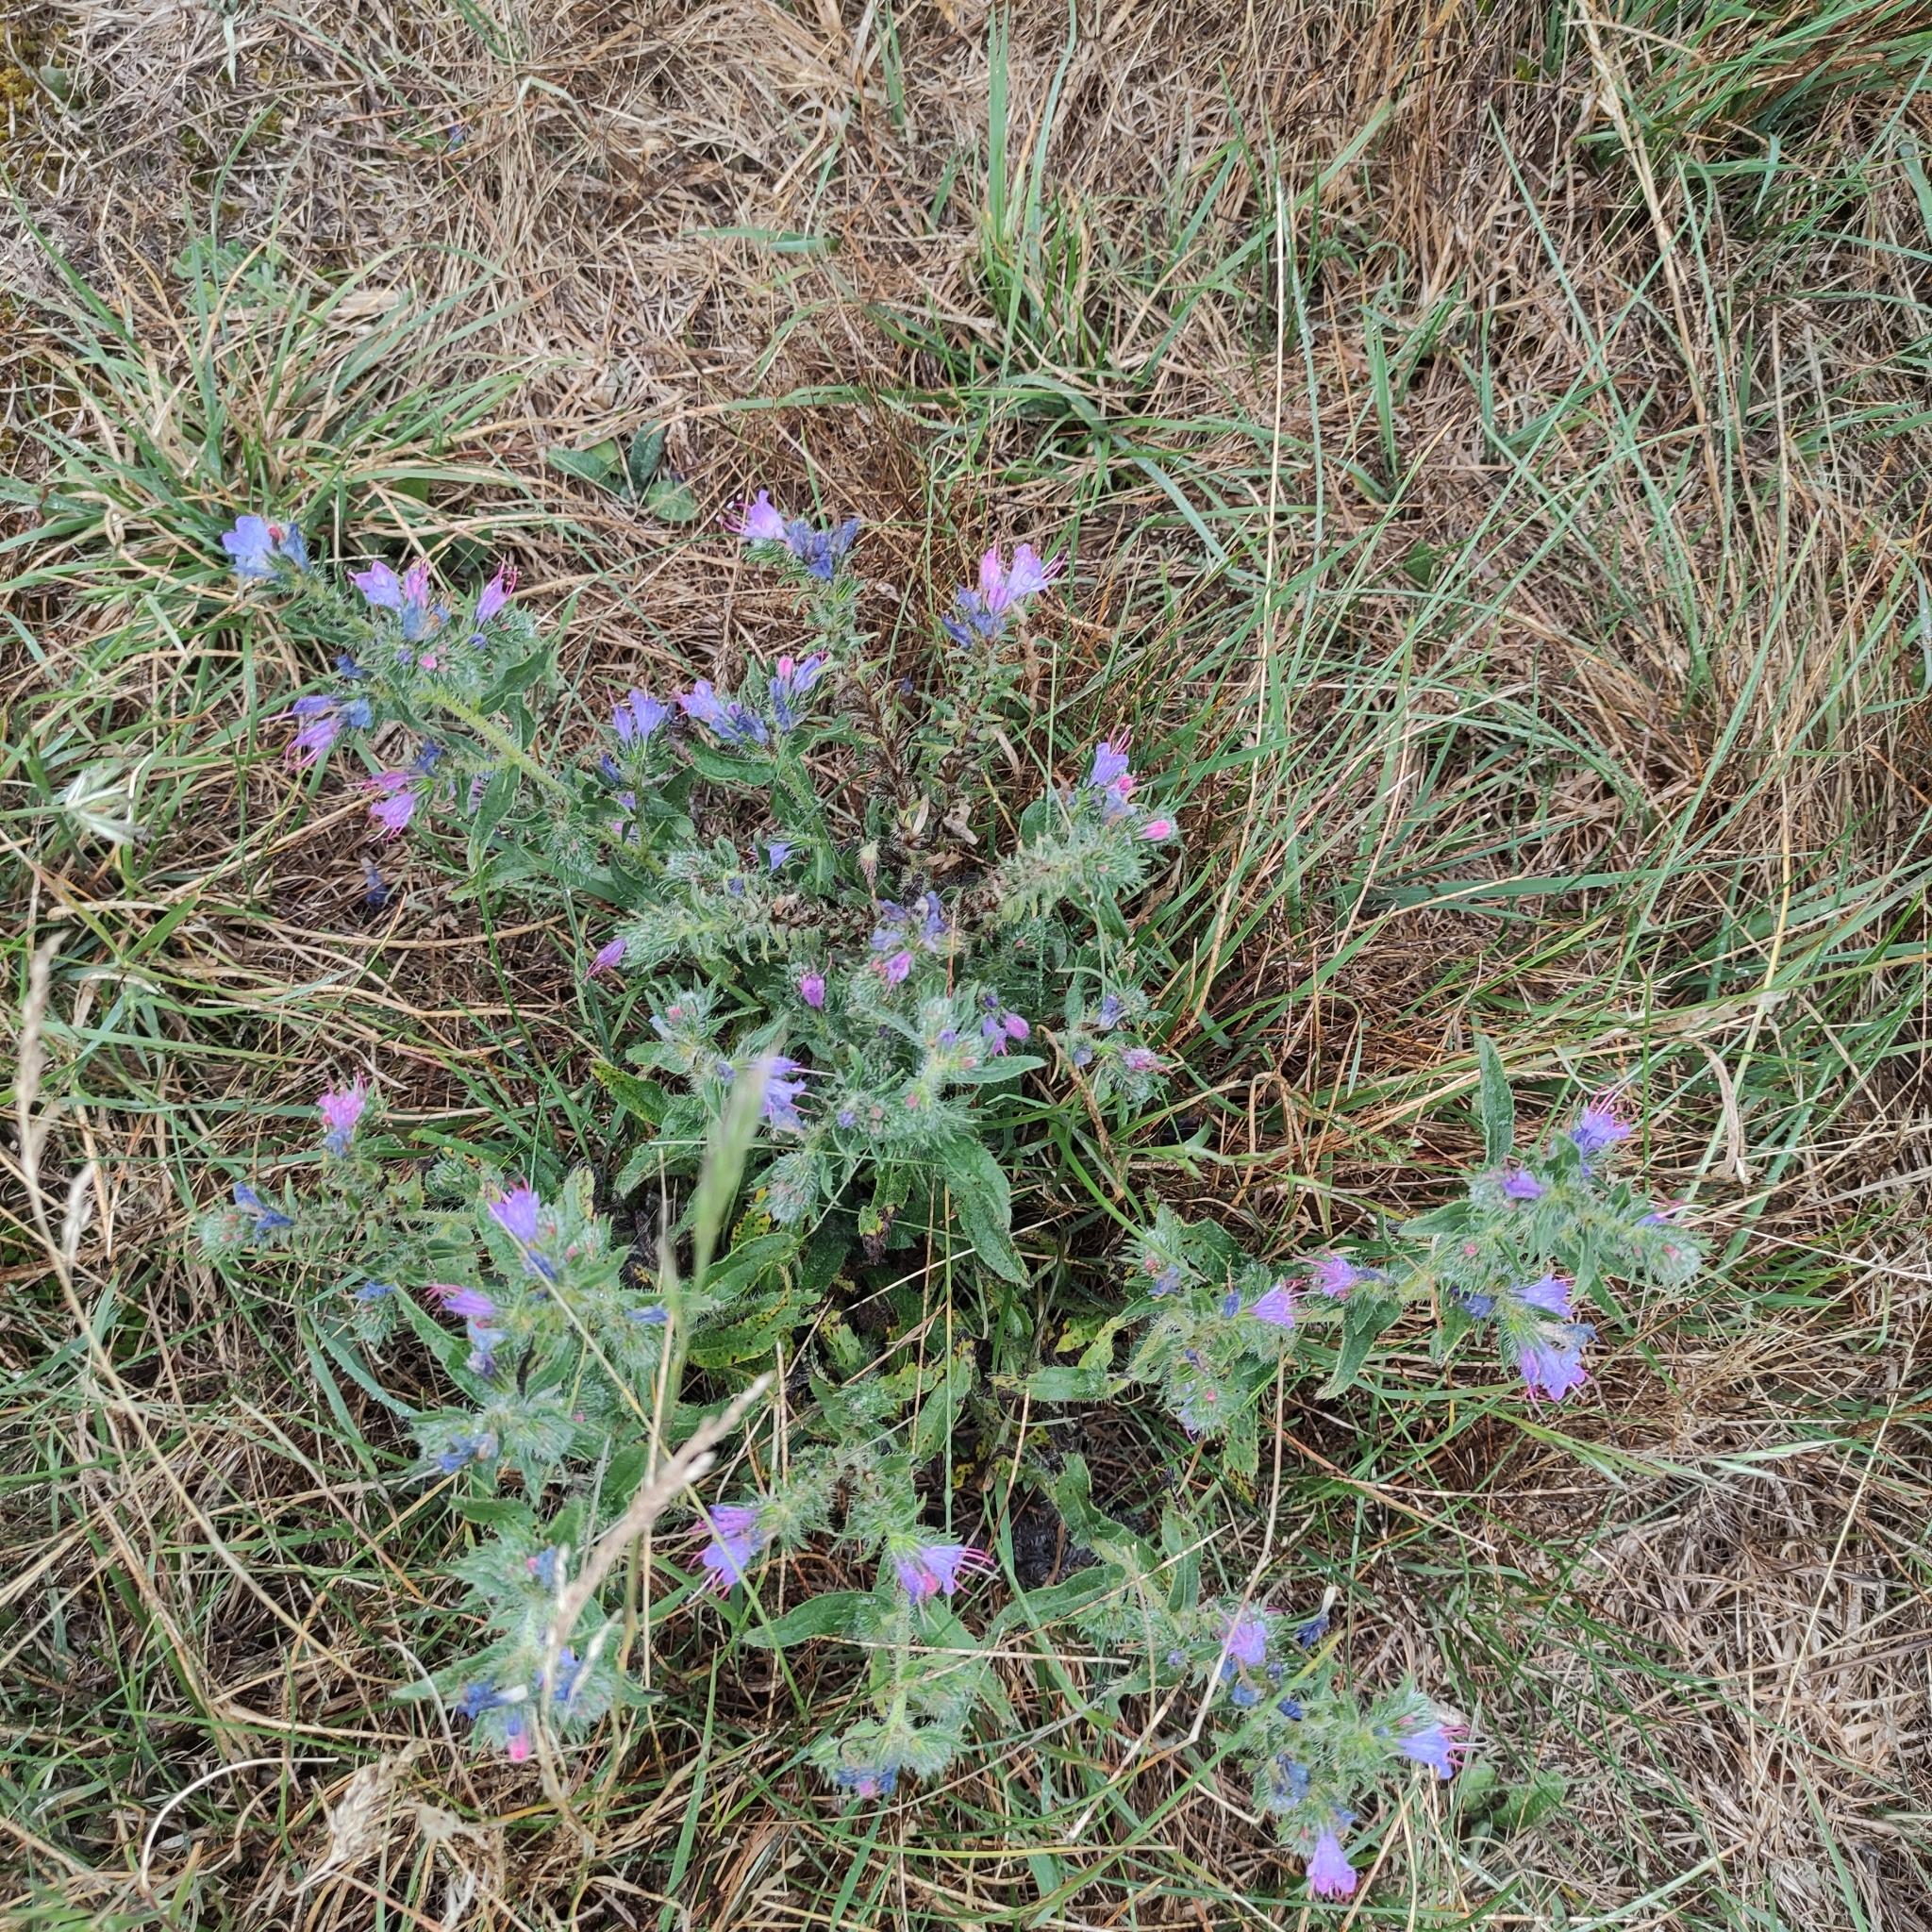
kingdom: Plantae
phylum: Tracheophyta
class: Magnoliopsida
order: Boraginales
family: Boraginaceae
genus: Echium
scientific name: Echium vulgare
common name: Common viper's bugloss
